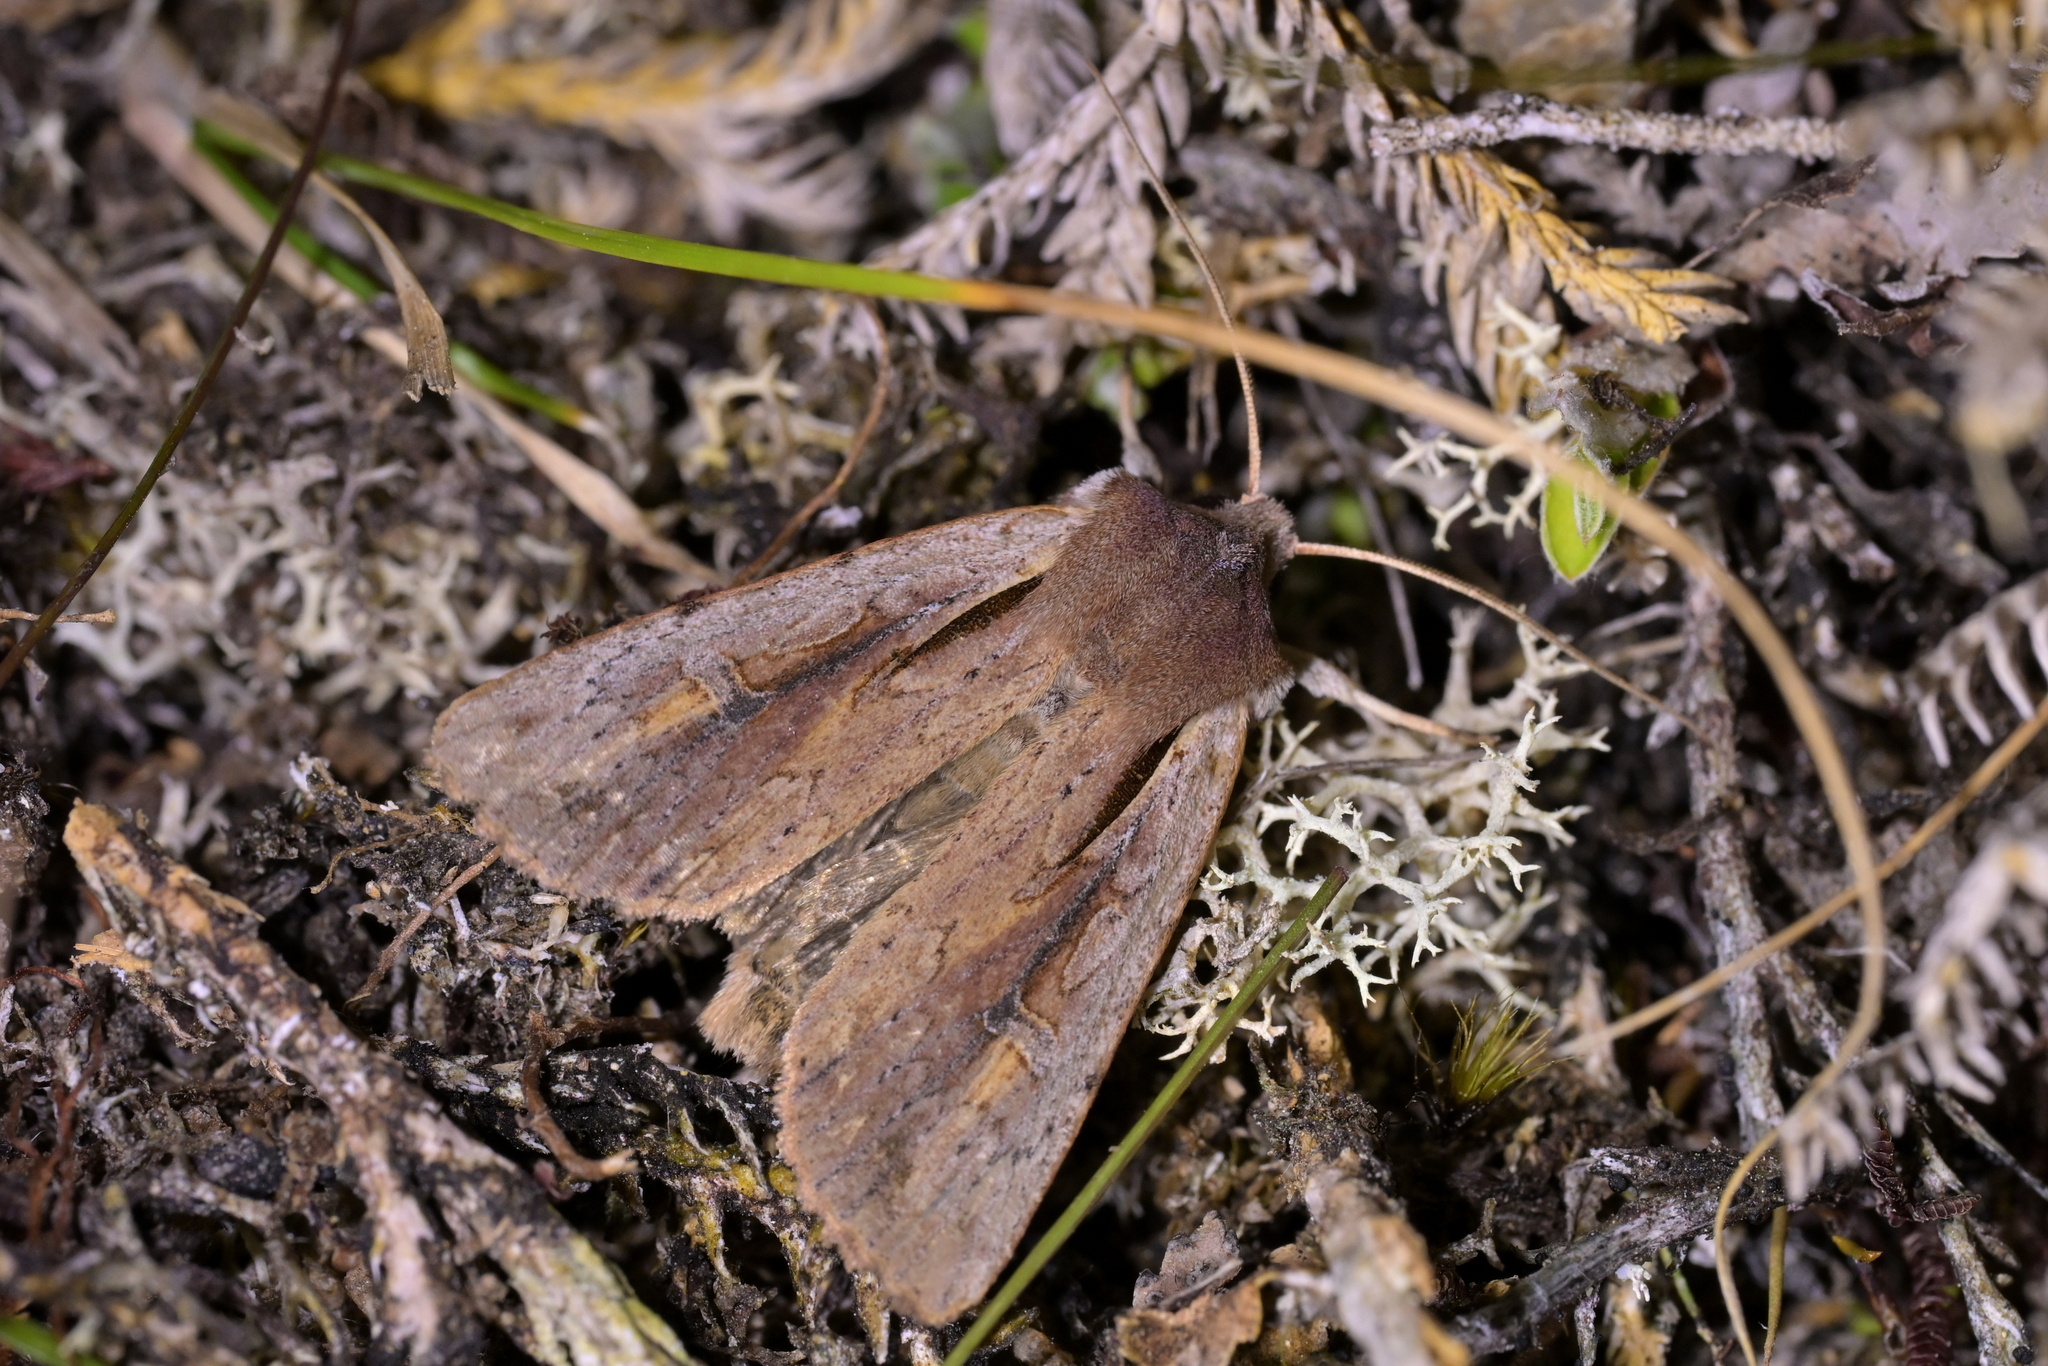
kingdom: Animalia
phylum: Arthropoda
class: Insecta
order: Lepidoptera
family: Noctuidae
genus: Ichneutica
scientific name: Ichneutica atristriga
